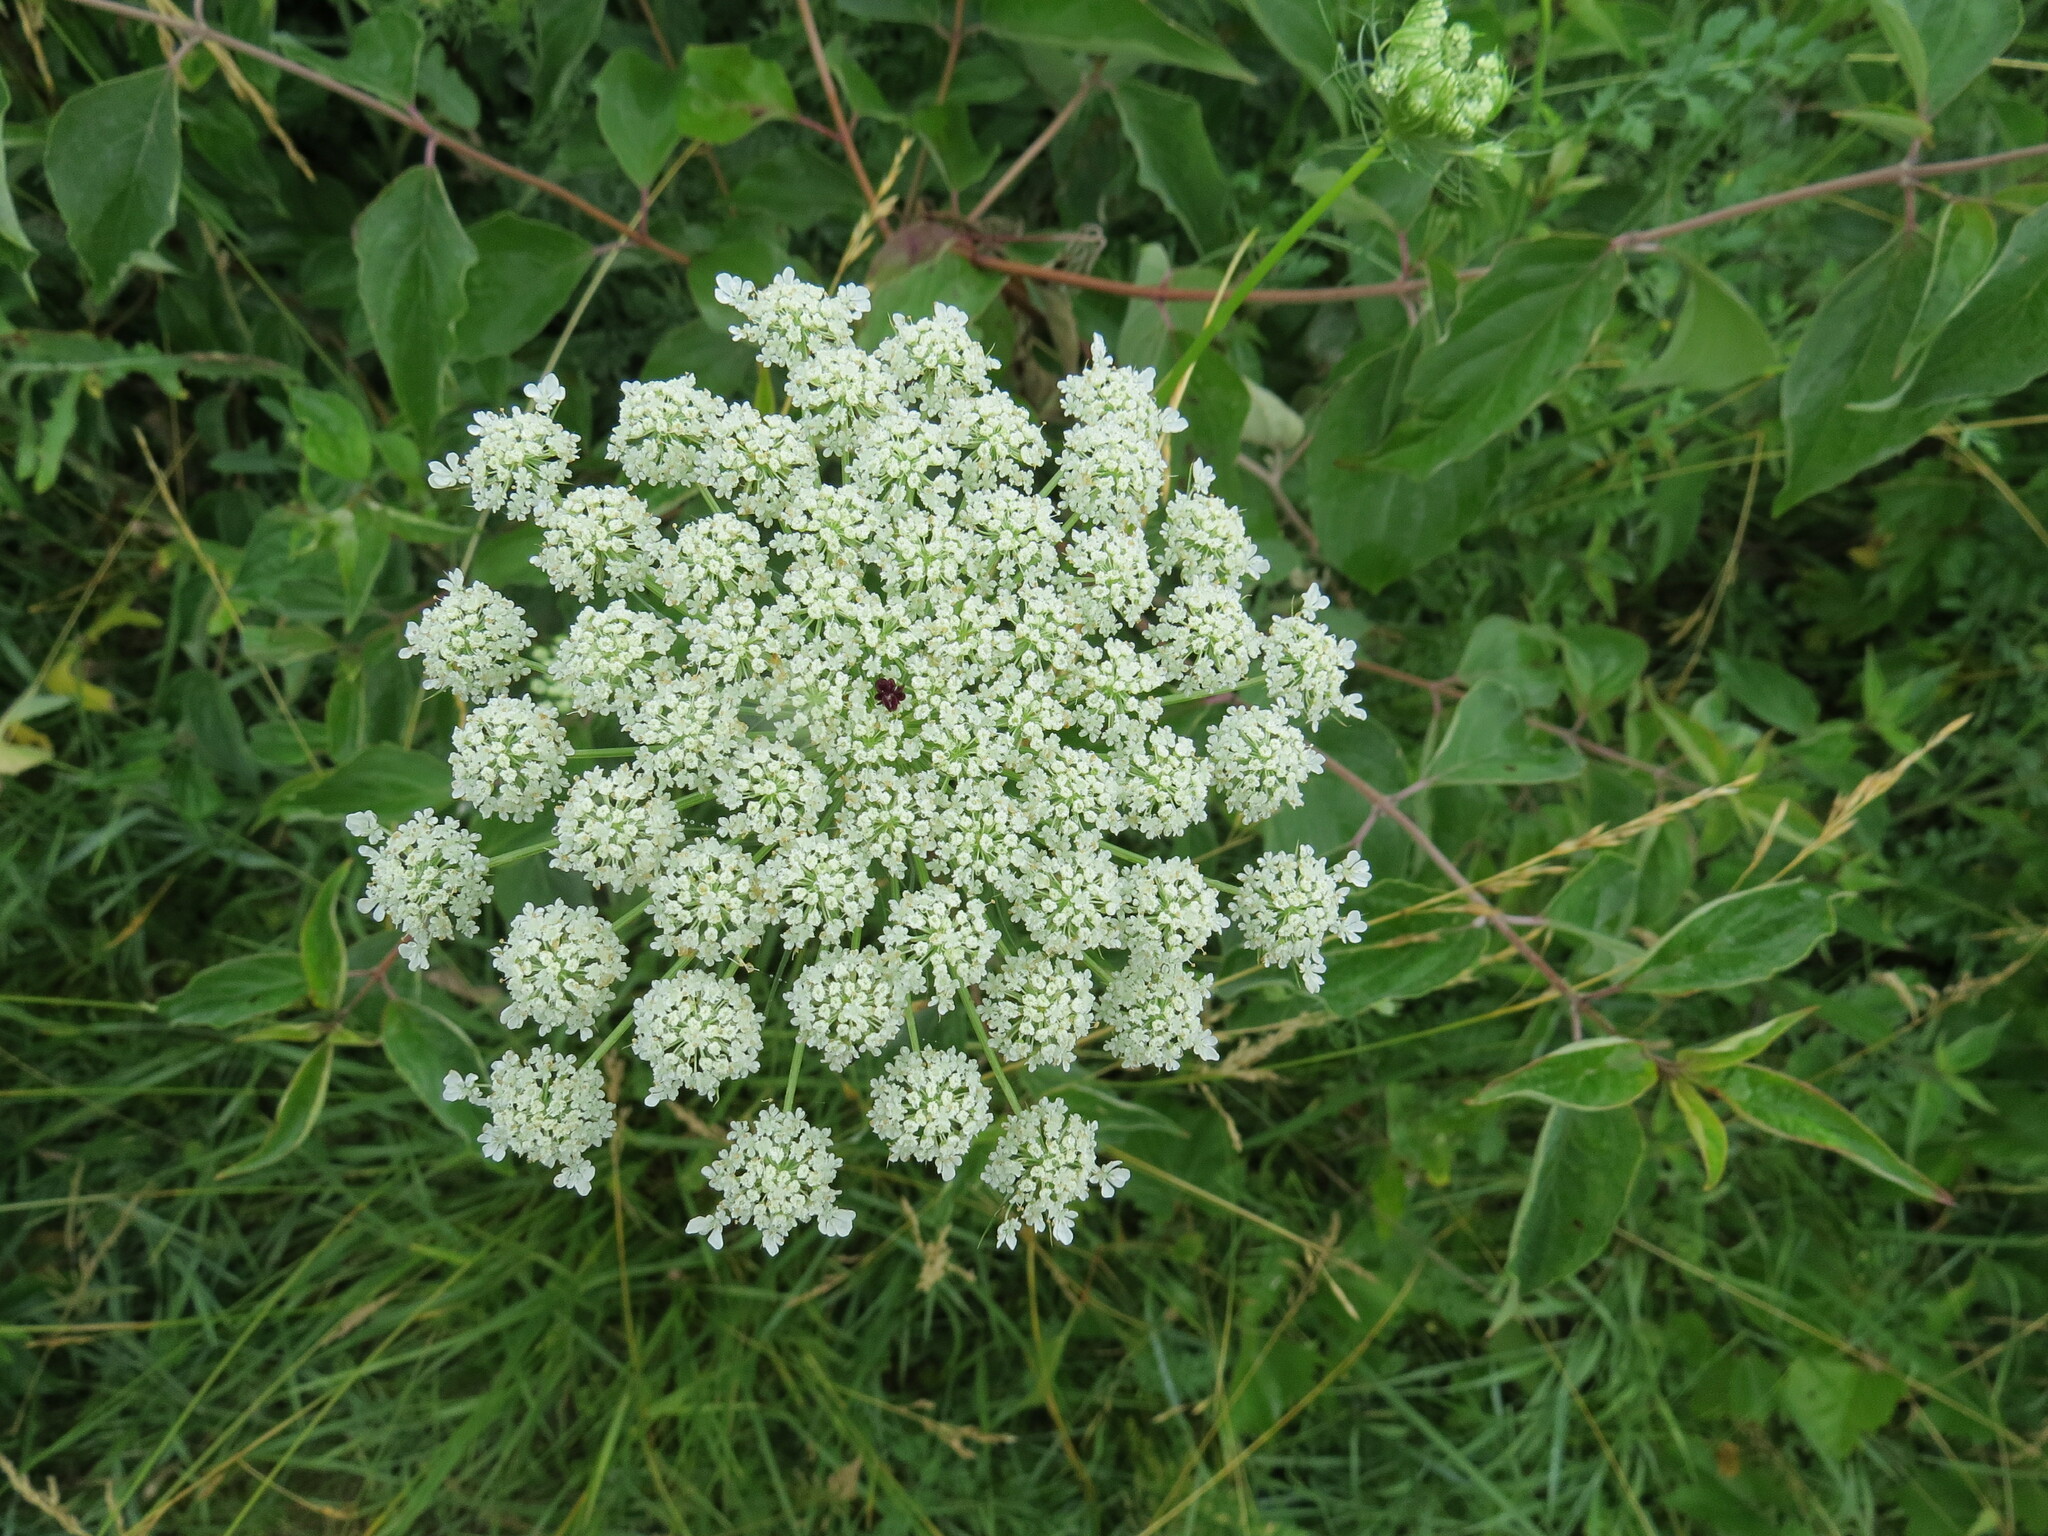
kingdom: Plantae
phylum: Tracheophyta
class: Magnoliopsida
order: Apiales
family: Apiaceae
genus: Daucus
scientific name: Daucus carota
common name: Wild carrot
